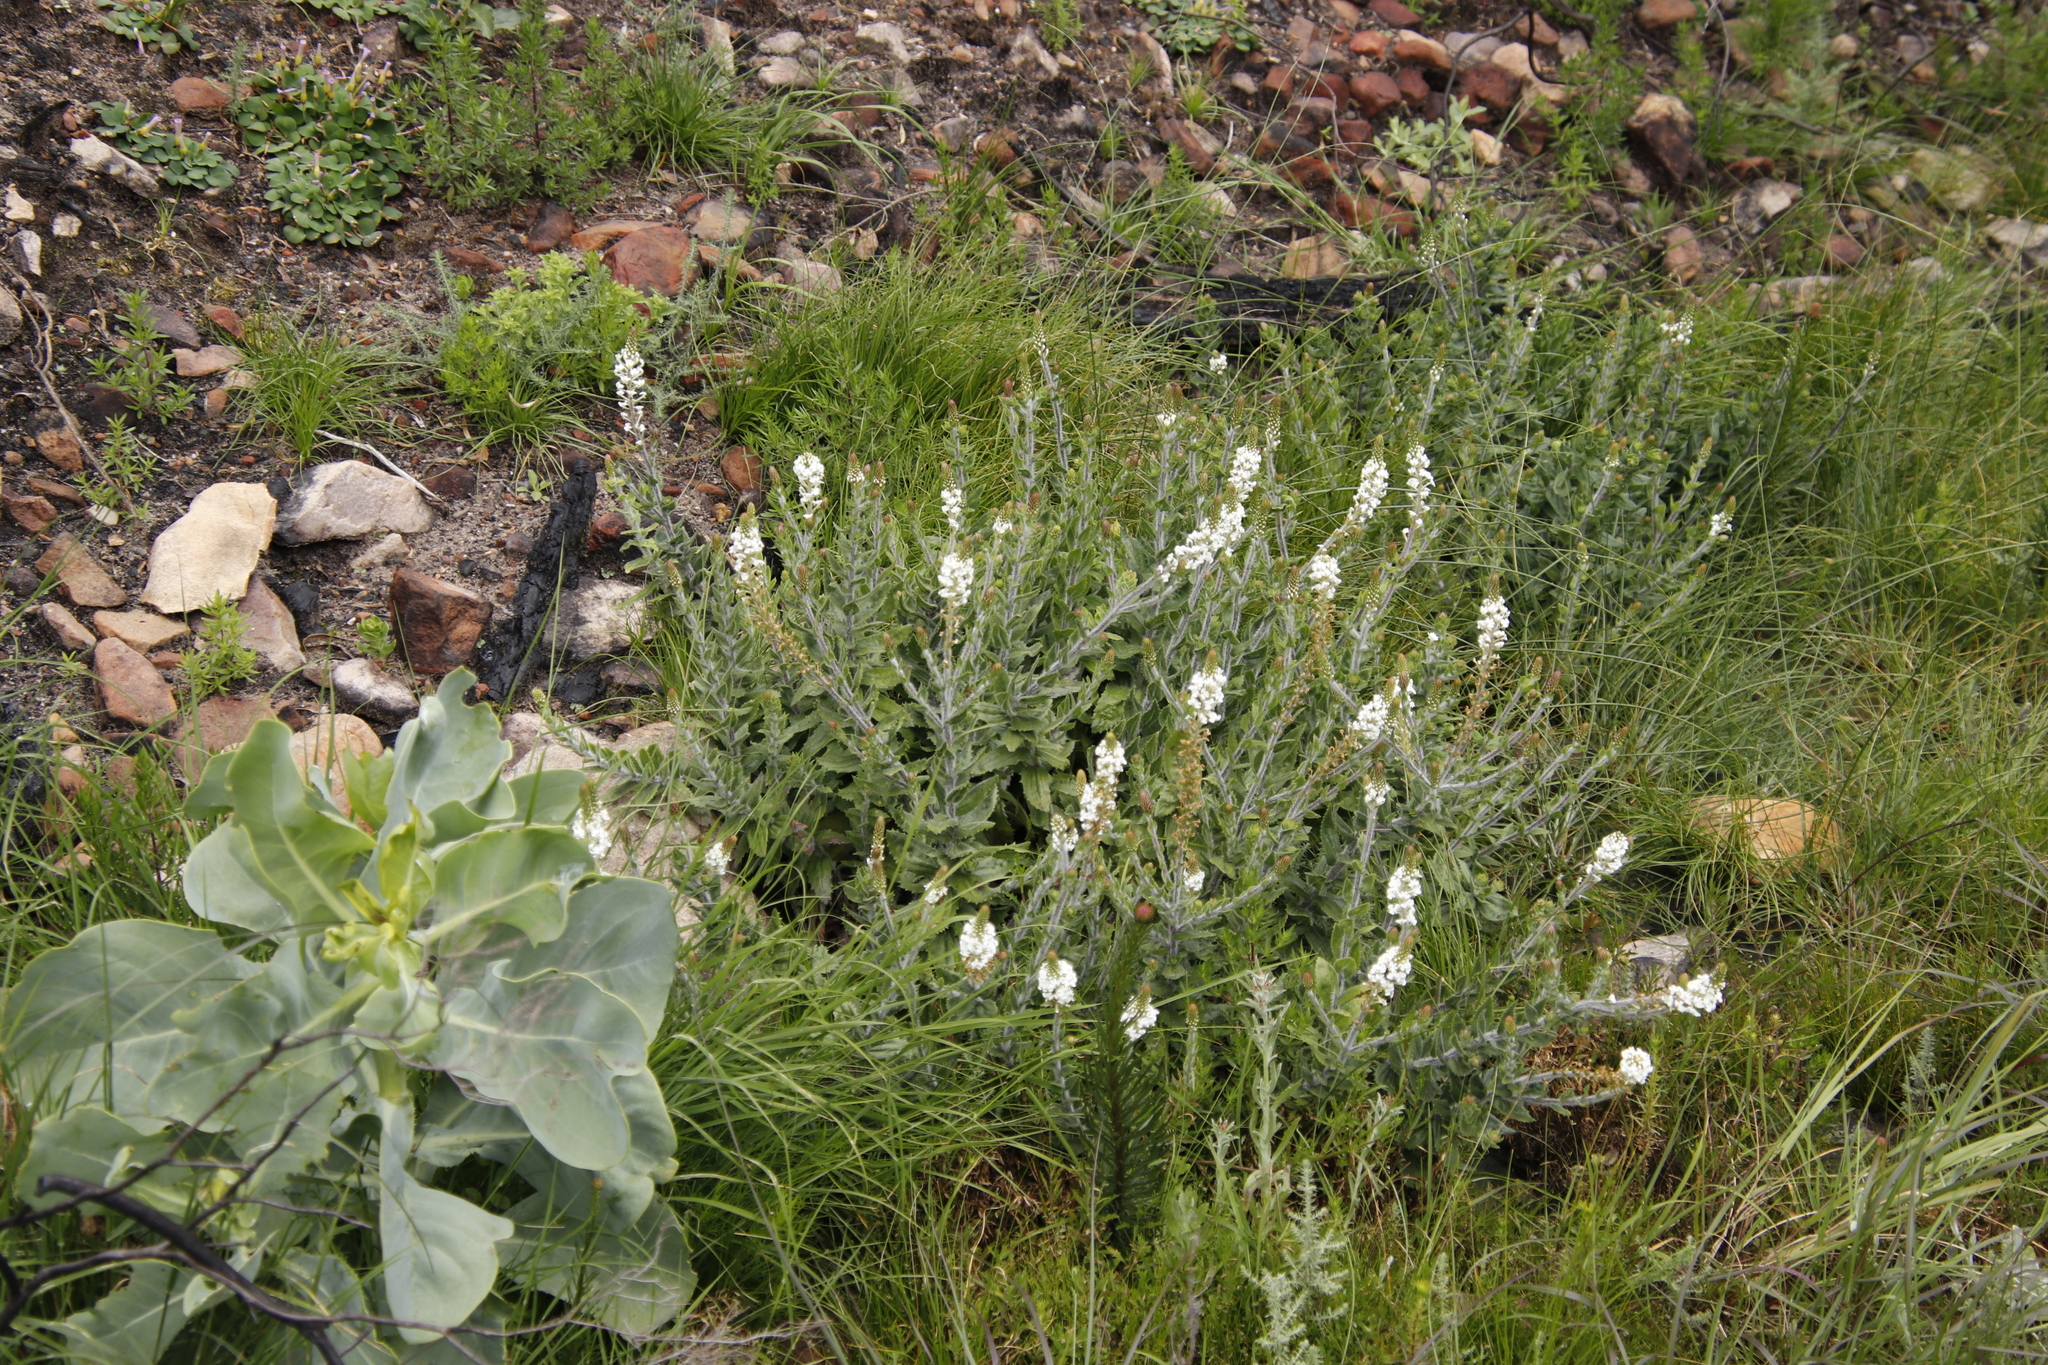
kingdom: Plantae
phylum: Tracheophyta
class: Magnoliopsida
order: Lamiales
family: Scrophulariaceae
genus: Hebenstretia
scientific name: Hebenstretia lanceolata
